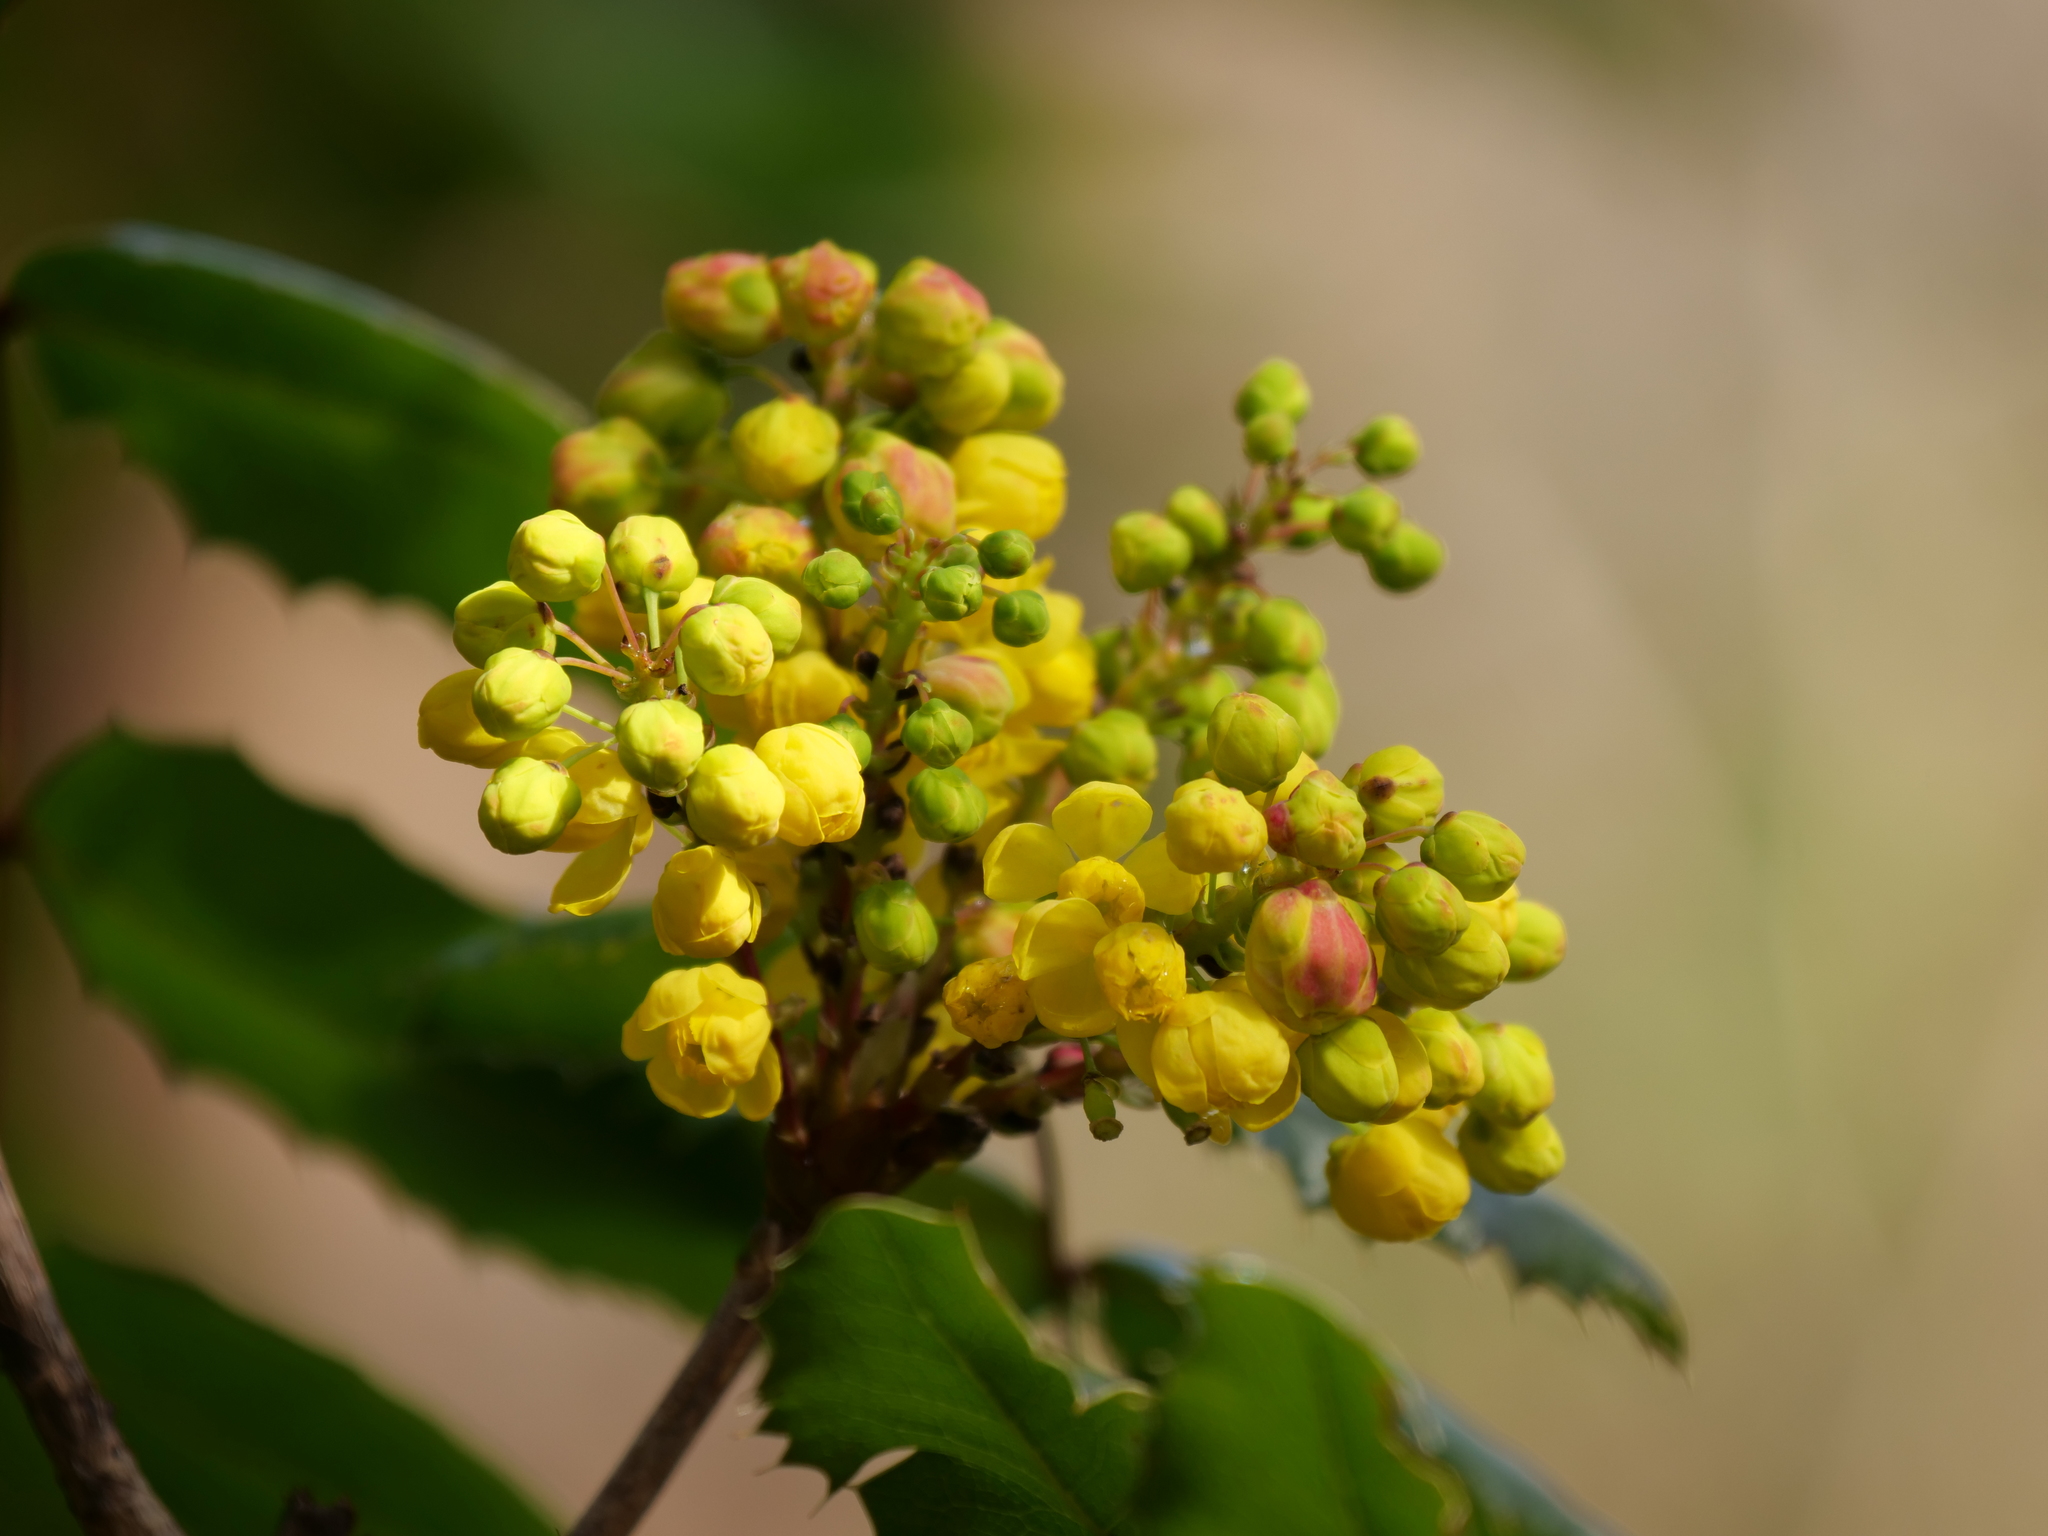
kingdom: Plantae
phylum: Tracheophyta
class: Magnoliopsida
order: Ranunculales
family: Berberidaceae
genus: Mahonia
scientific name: Mahonia aquifolium
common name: Oregon-grape
